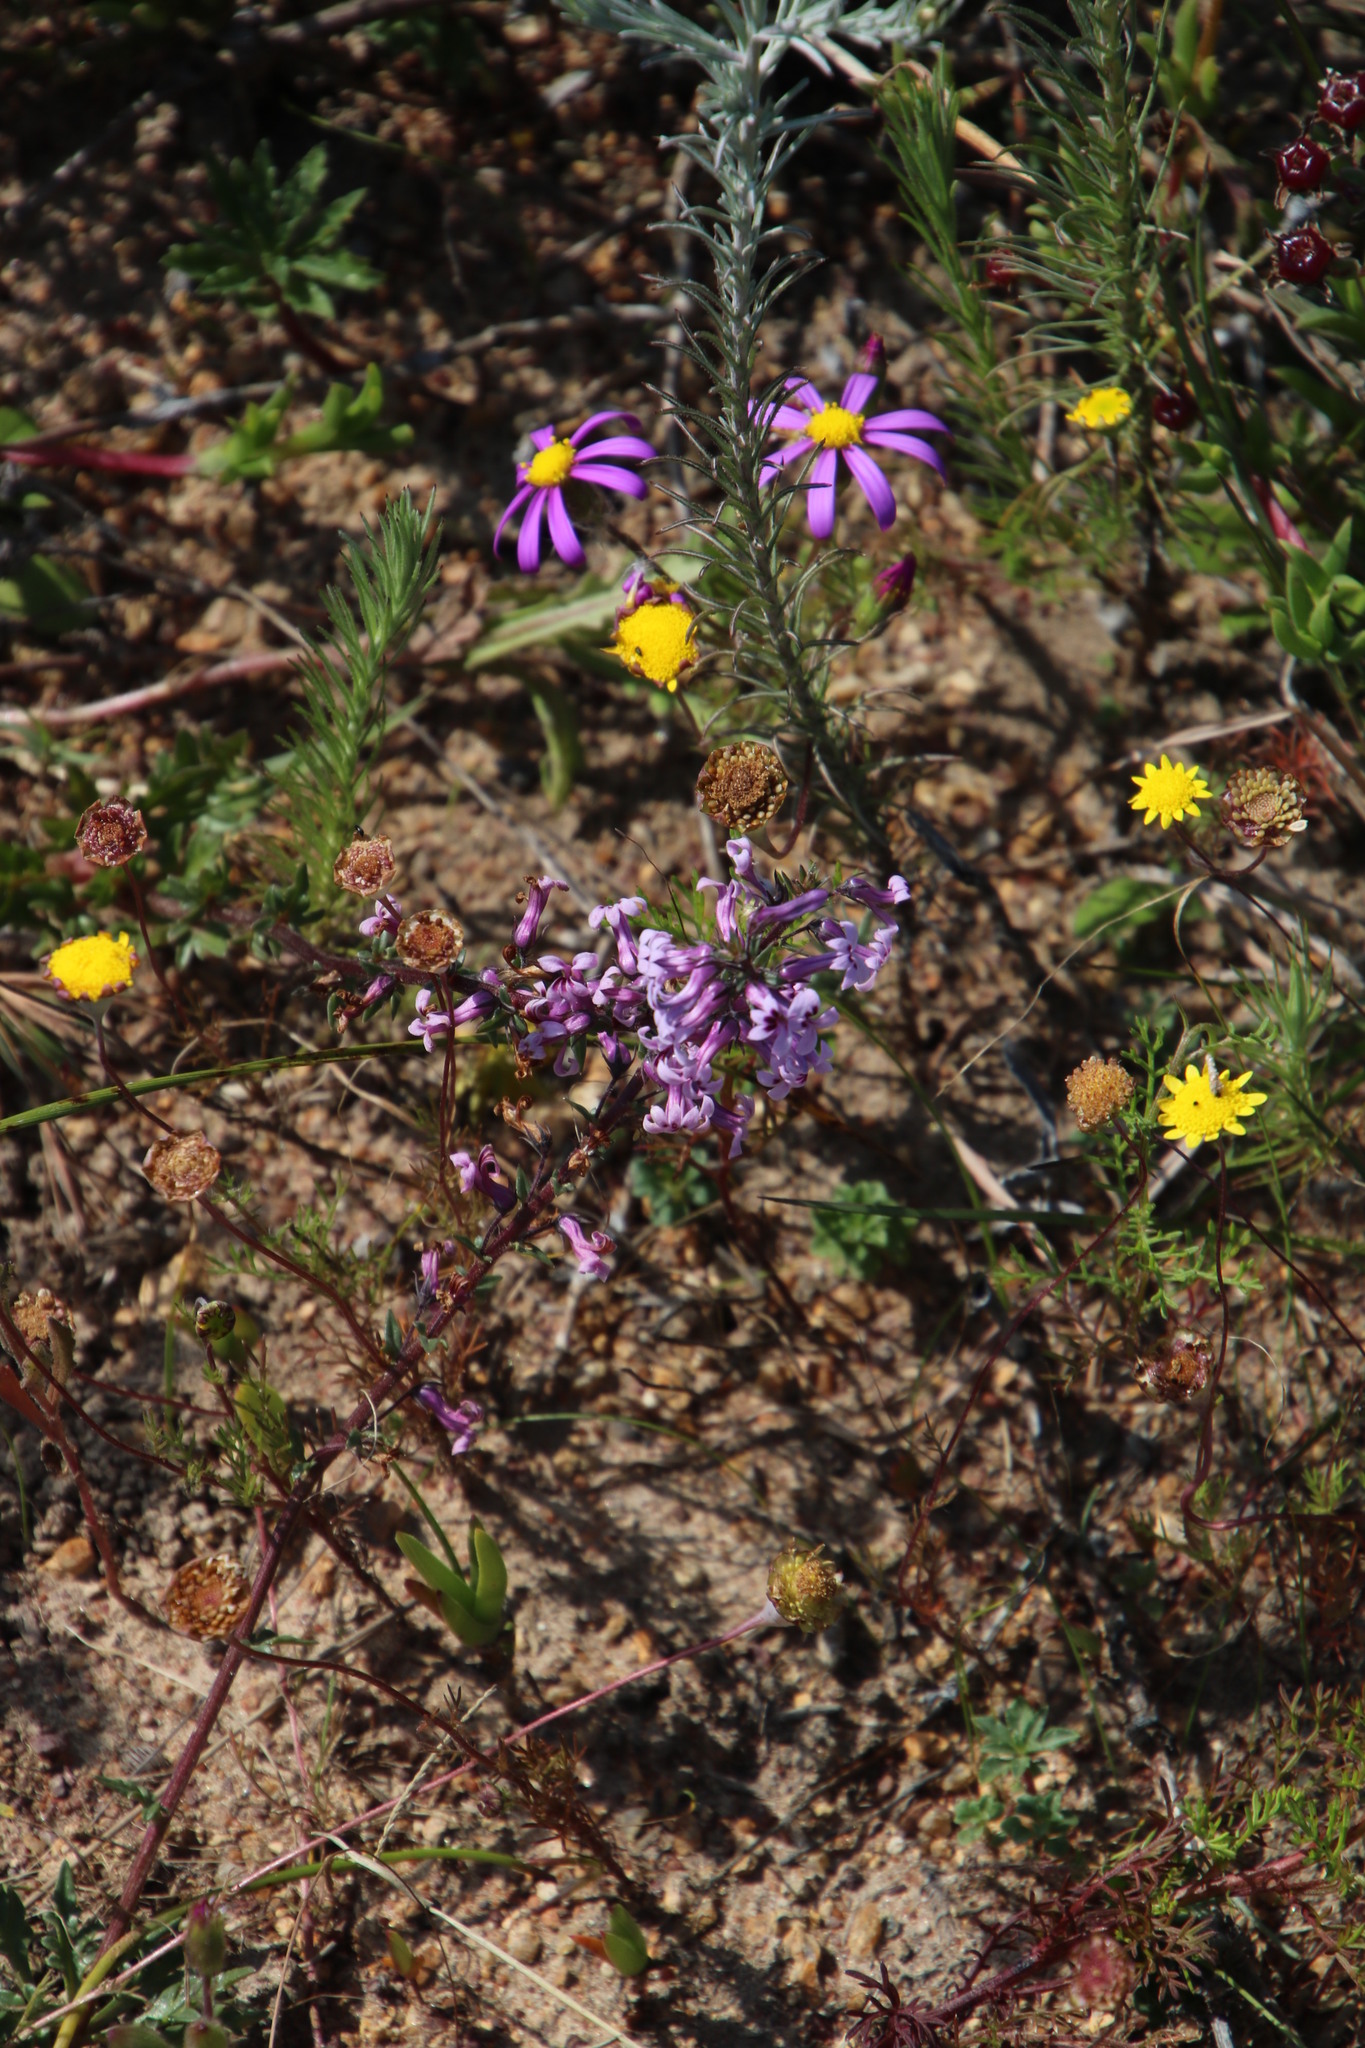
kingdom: Plantae
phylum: Tracheophyta
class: Magnoliopsida
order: Asterales
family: Campanulaceae
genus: Cyphia
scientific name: Cyphia bulbosa
